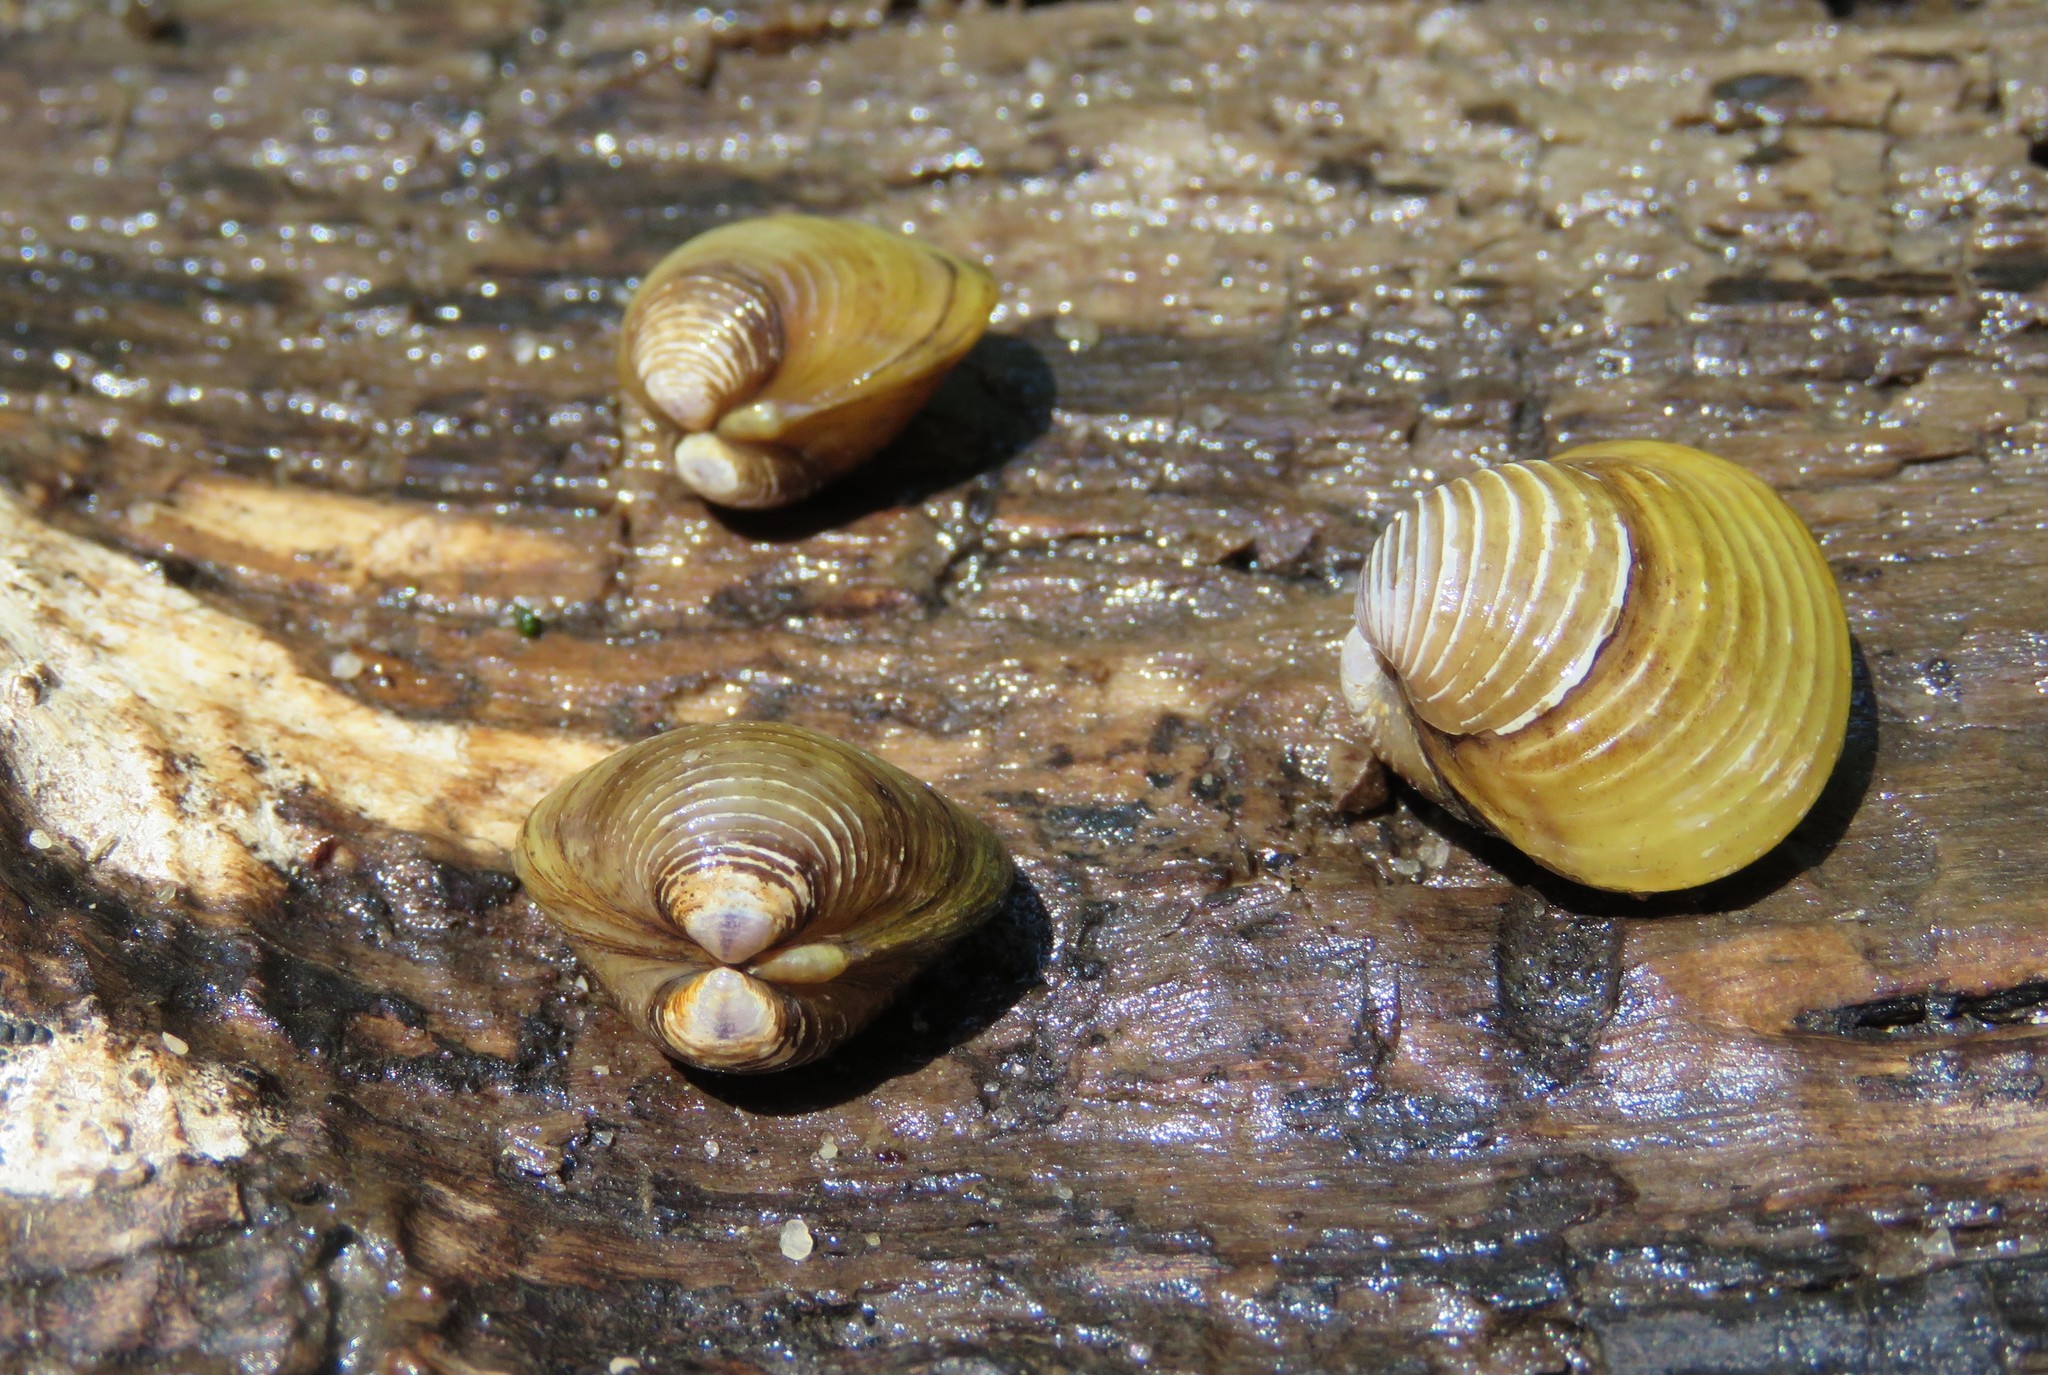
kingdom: Animalia
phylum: Mollusca
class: Bivalvia
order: Venerida
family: Cyrenidae
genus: Corbicula
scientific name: Corbicula fluminea
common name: Asian clam
